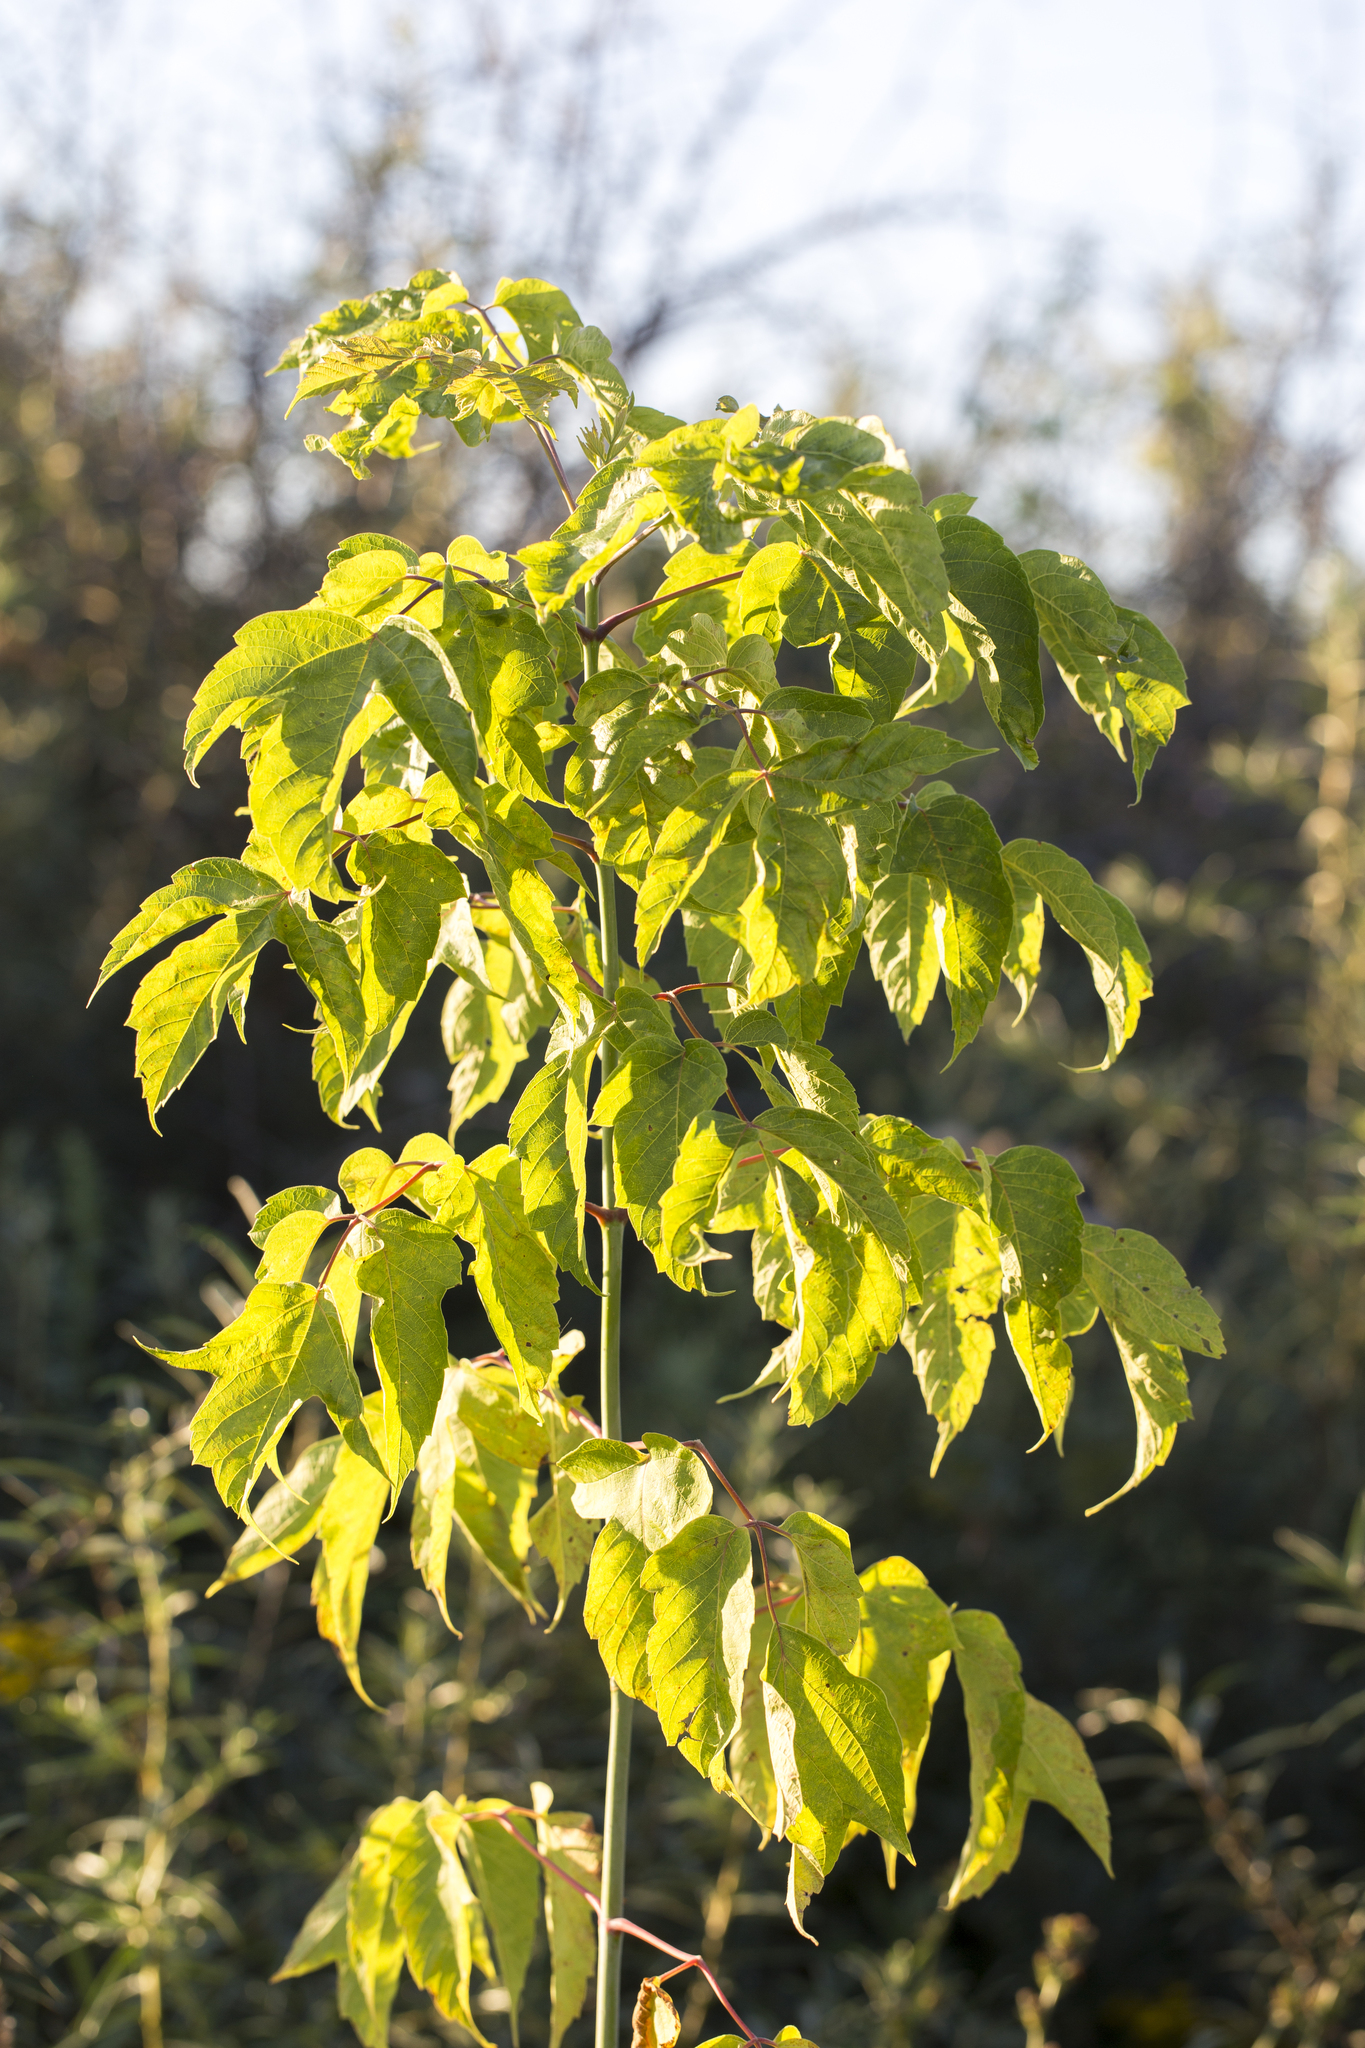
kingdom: Plantae
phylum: Tracheophyta
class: Magnoliopsida
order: Sapindales
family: Sapindaceae
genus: Acer
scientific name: Acer negundo
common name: Ashleaf maple
